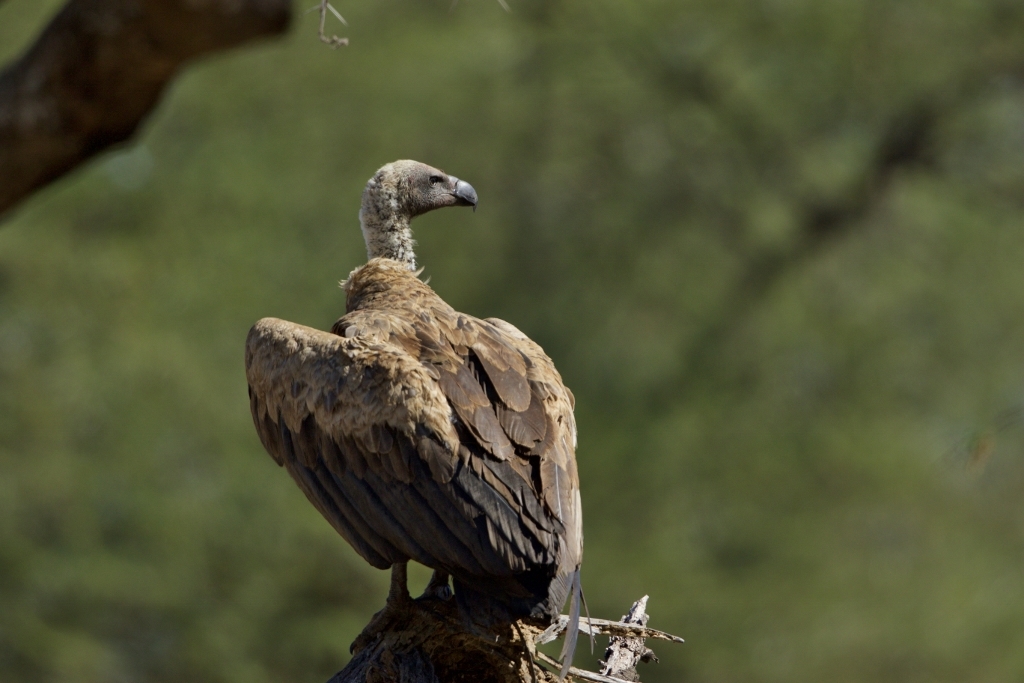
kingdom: Animalia
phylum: Chordata
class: Aves
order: Accipitriformes
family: Accipitridae
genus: Gyps
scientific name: Gyps africanus
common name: White-backed vulture
